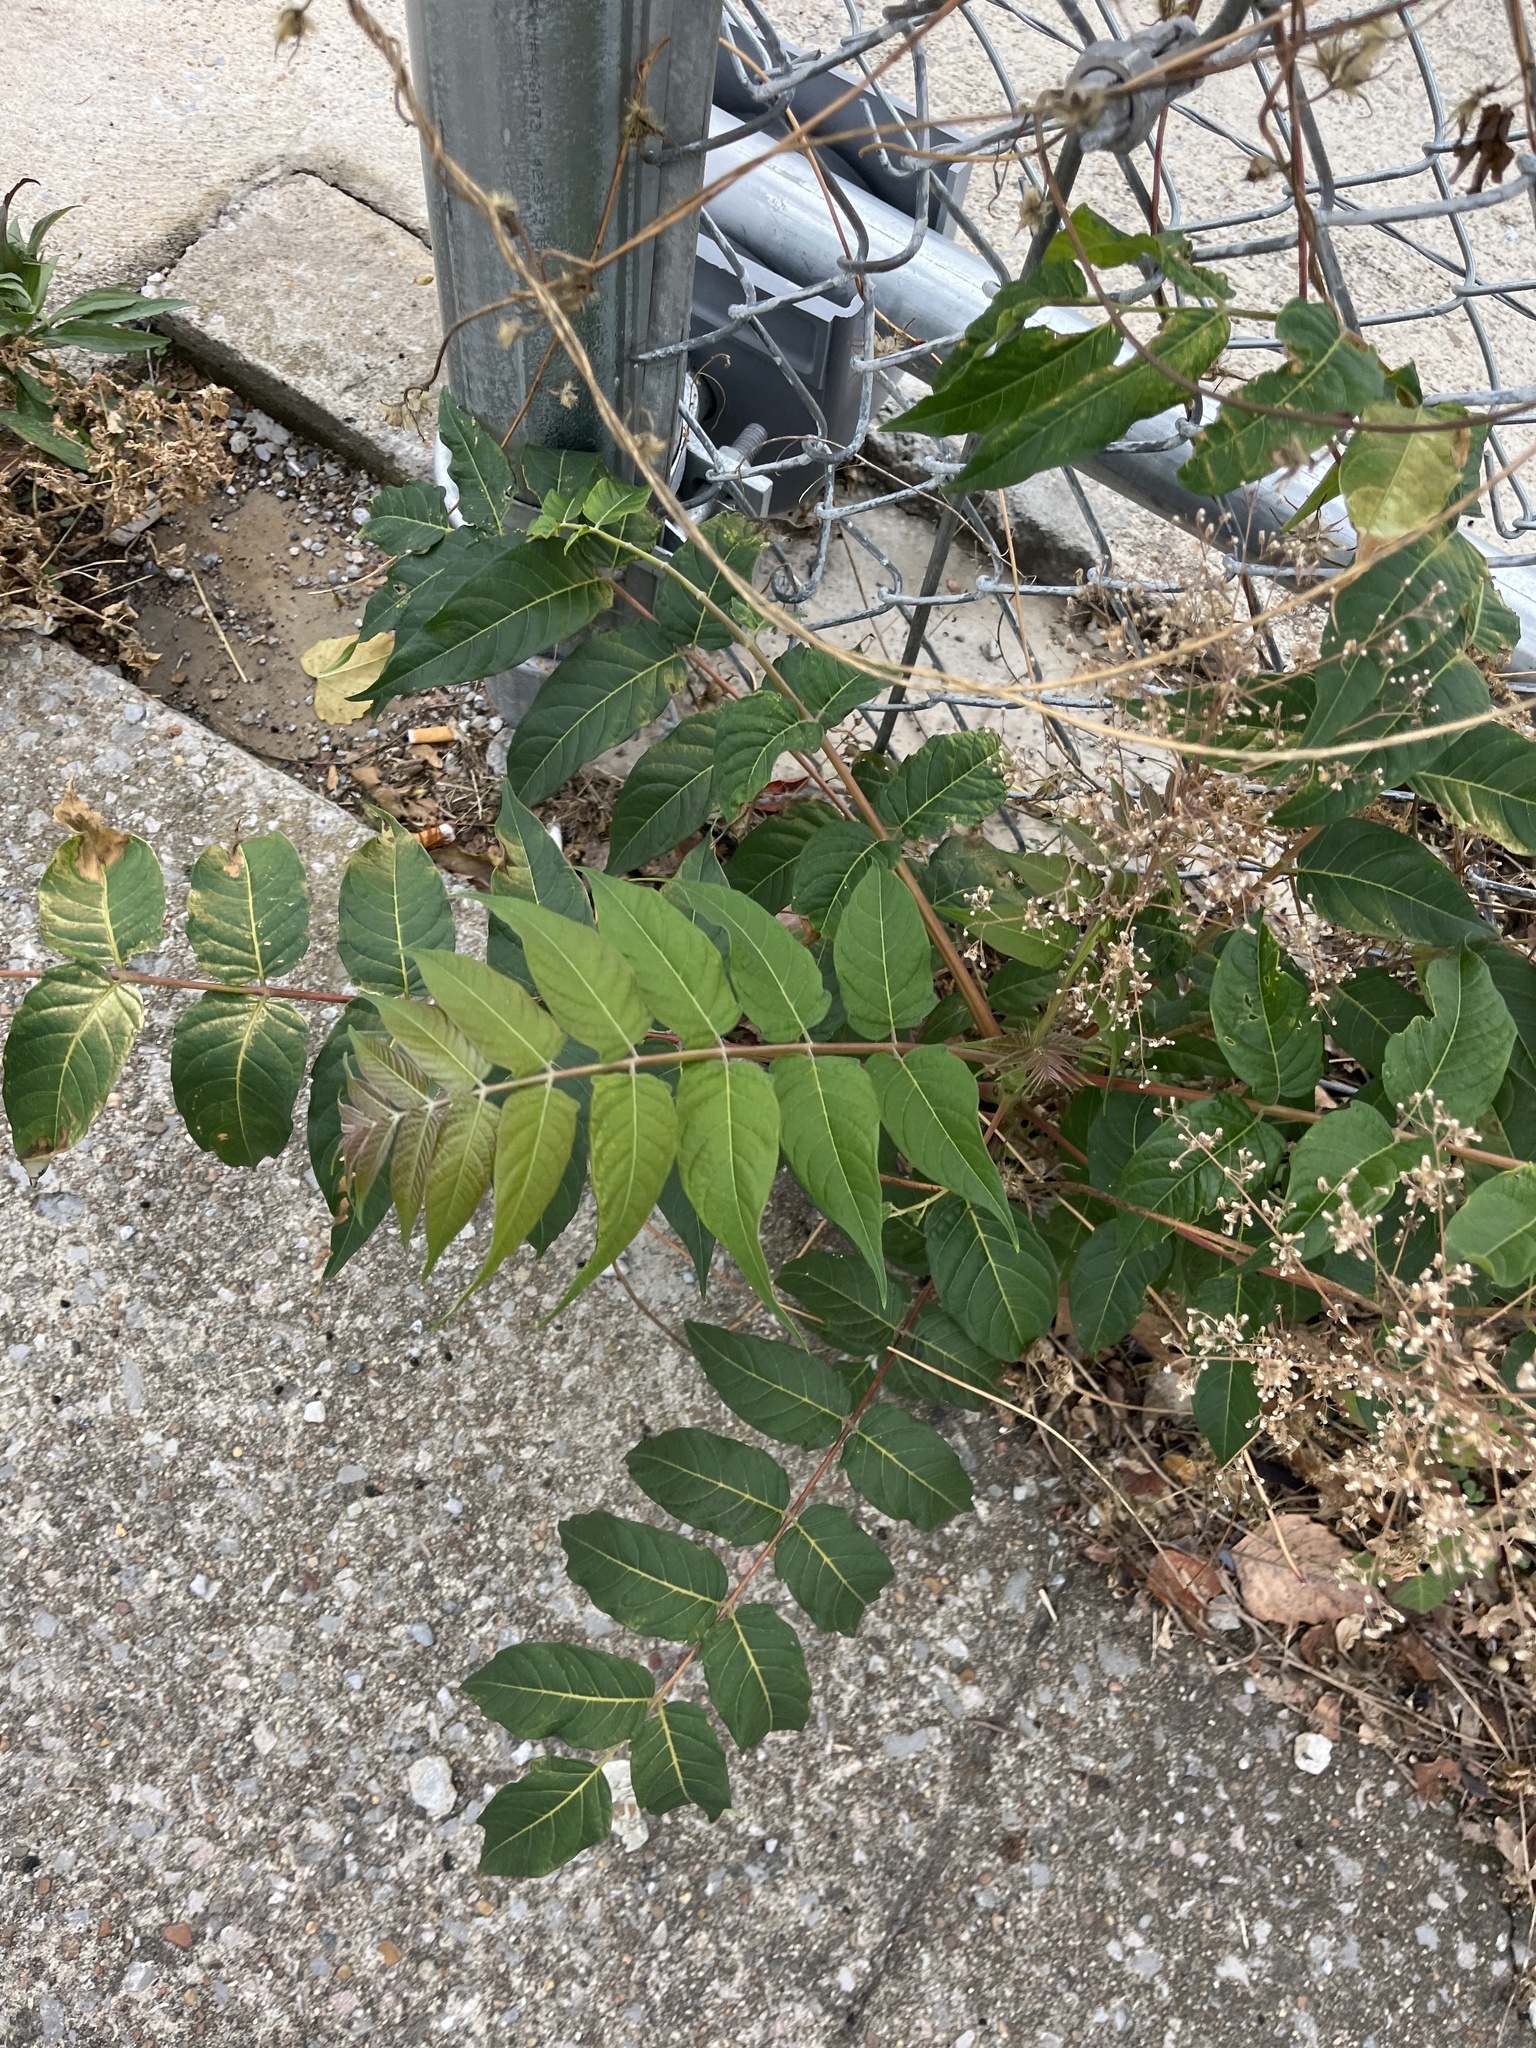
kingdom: Plantae
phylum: Tracheophyta
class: Magnoliopsida
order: Sapindales
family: Simaroubaceae
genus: Ailanthus
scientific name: Ailanthus altissima
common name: Tree-of-heaven
